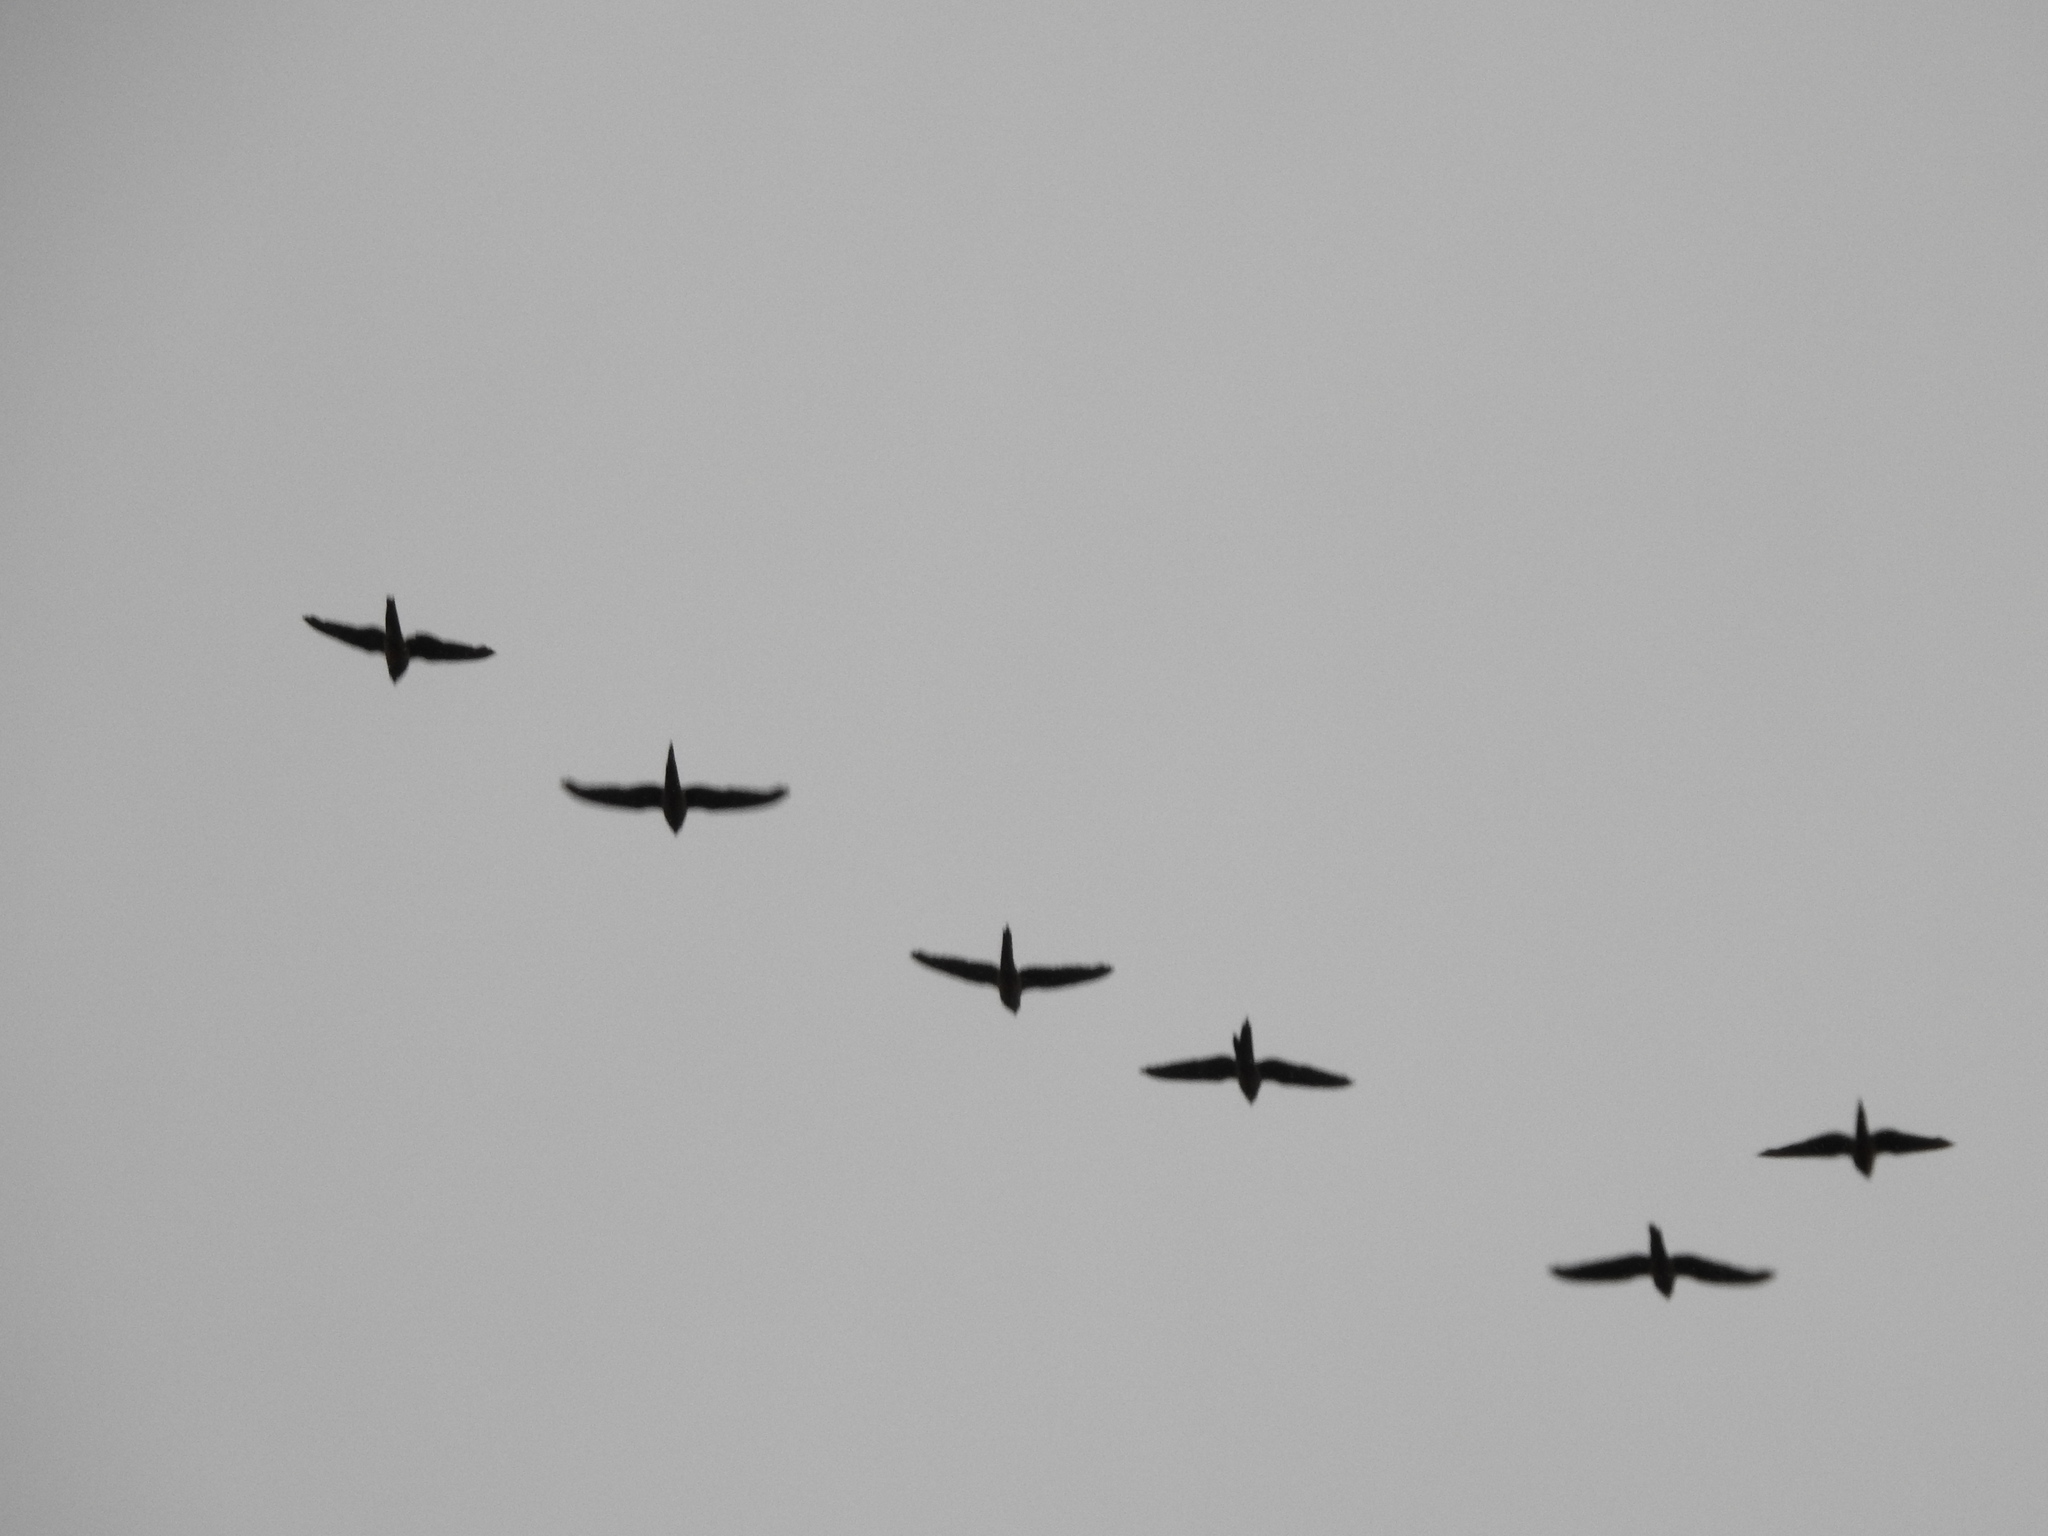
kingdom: Animalia
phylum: Chordata
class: Aves
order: Psittaciformes
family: Psittacidae
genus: Cyanoliseus
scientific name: Cyanoliseus patagonus
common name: Burrowing parrot
